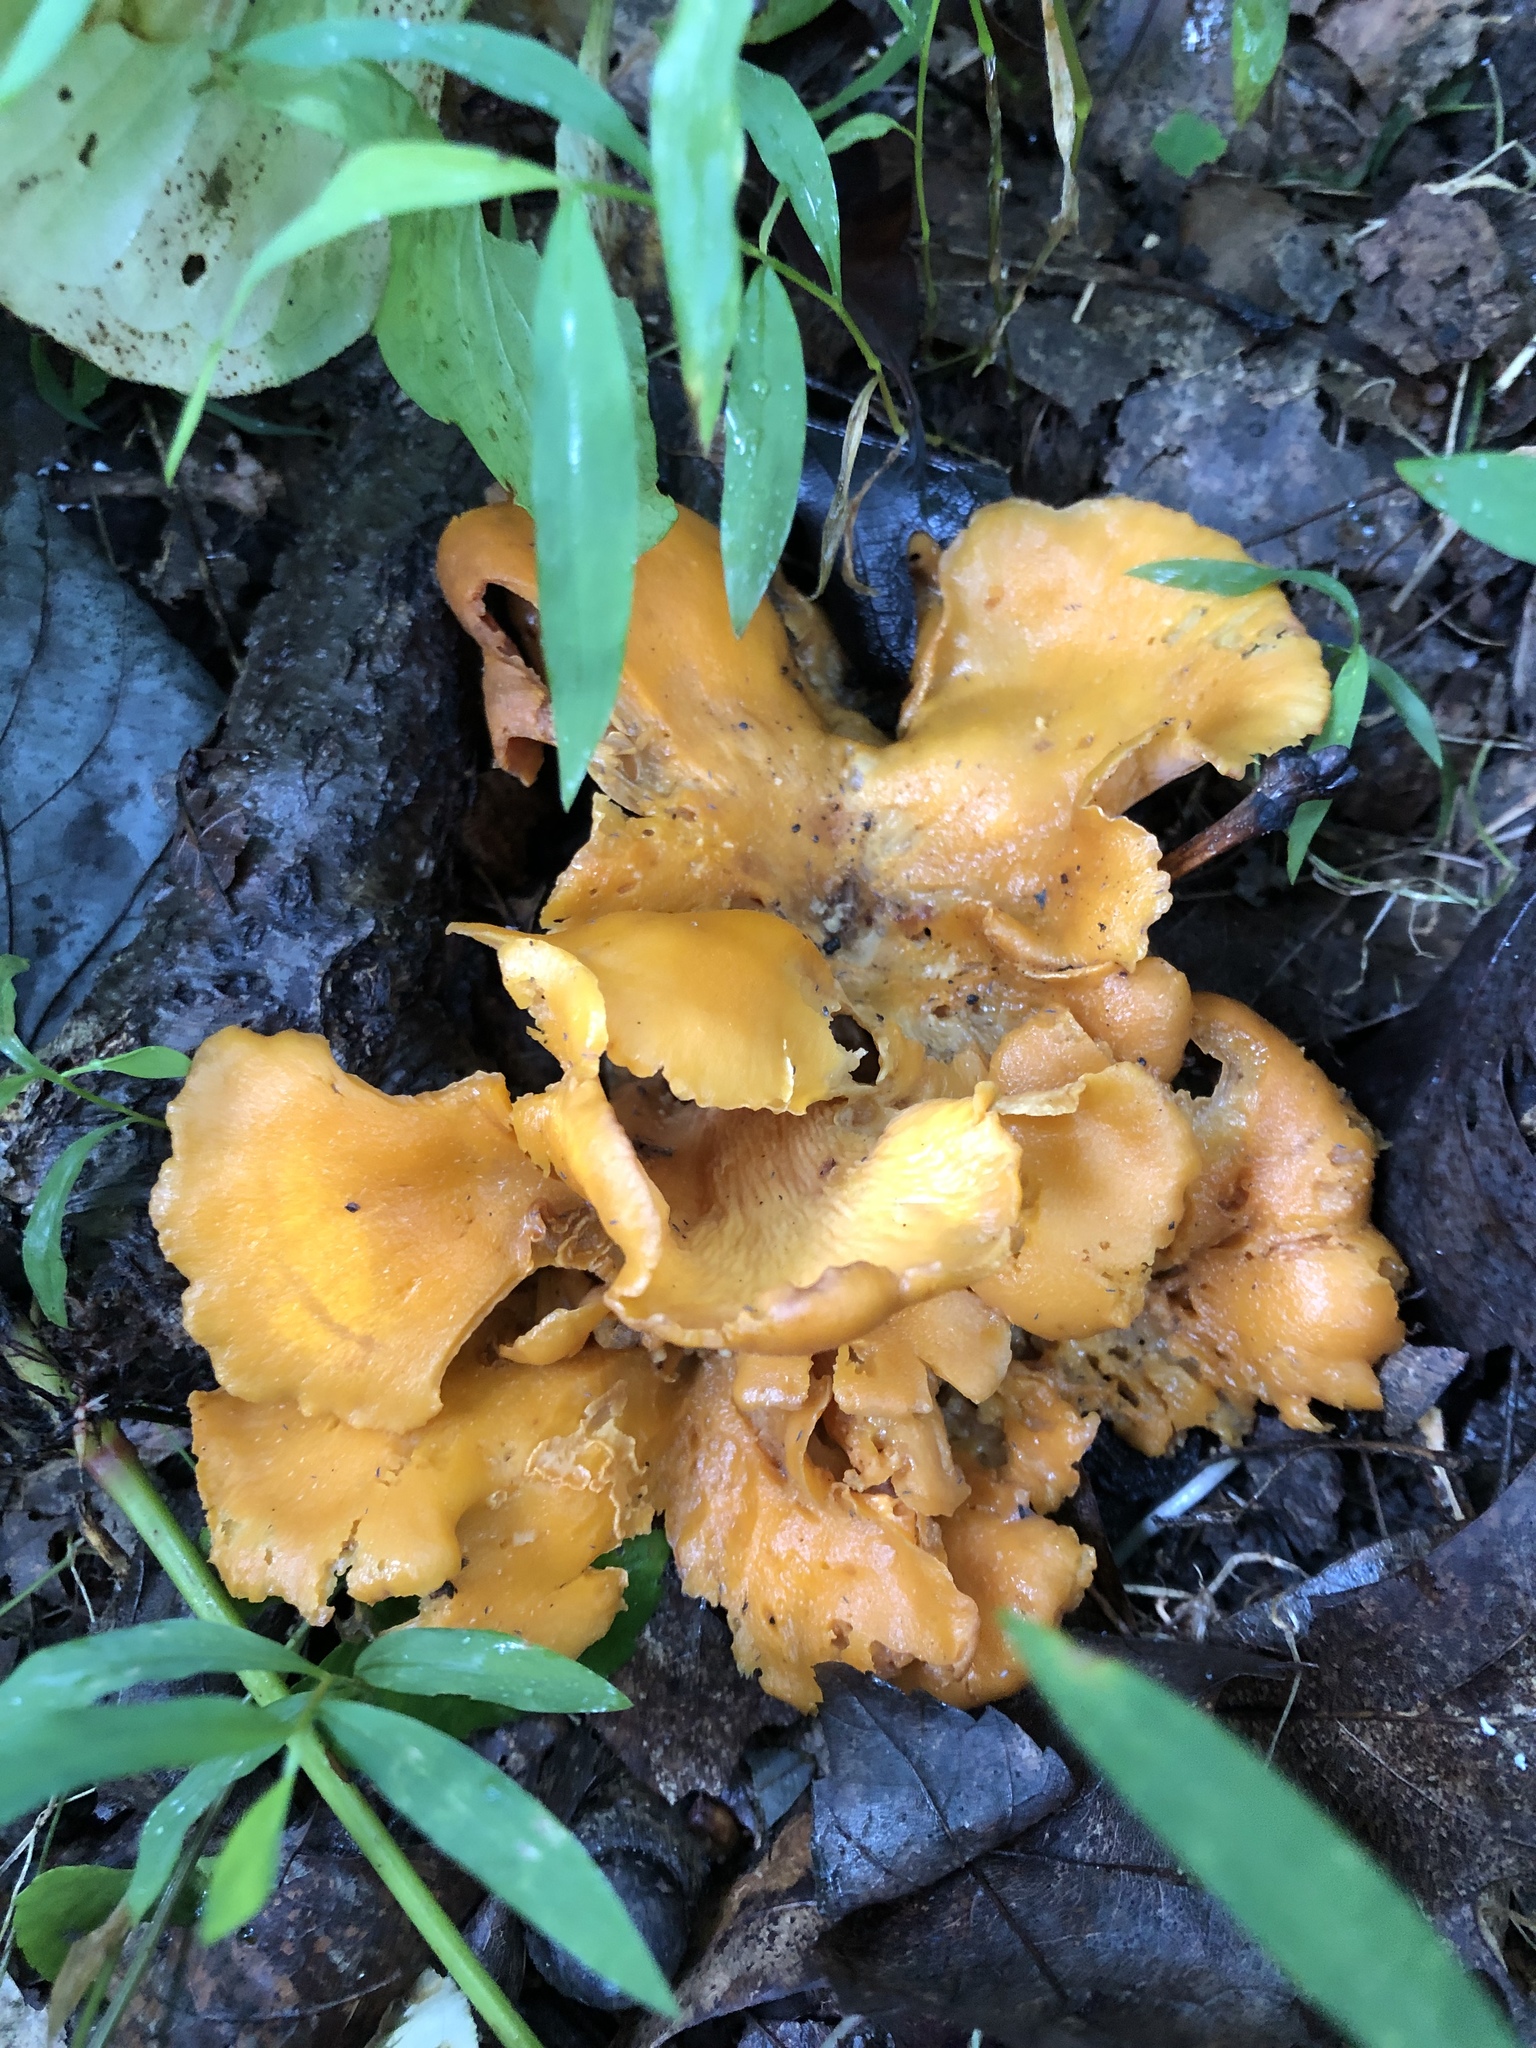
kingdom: Fungi
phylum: Basidiomycota
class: Agaricomycetes
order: Cantharellales
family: Hydnaceae
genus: Cantharellus
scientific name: Cantharellus lateritius
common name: Smooth chanterelle
